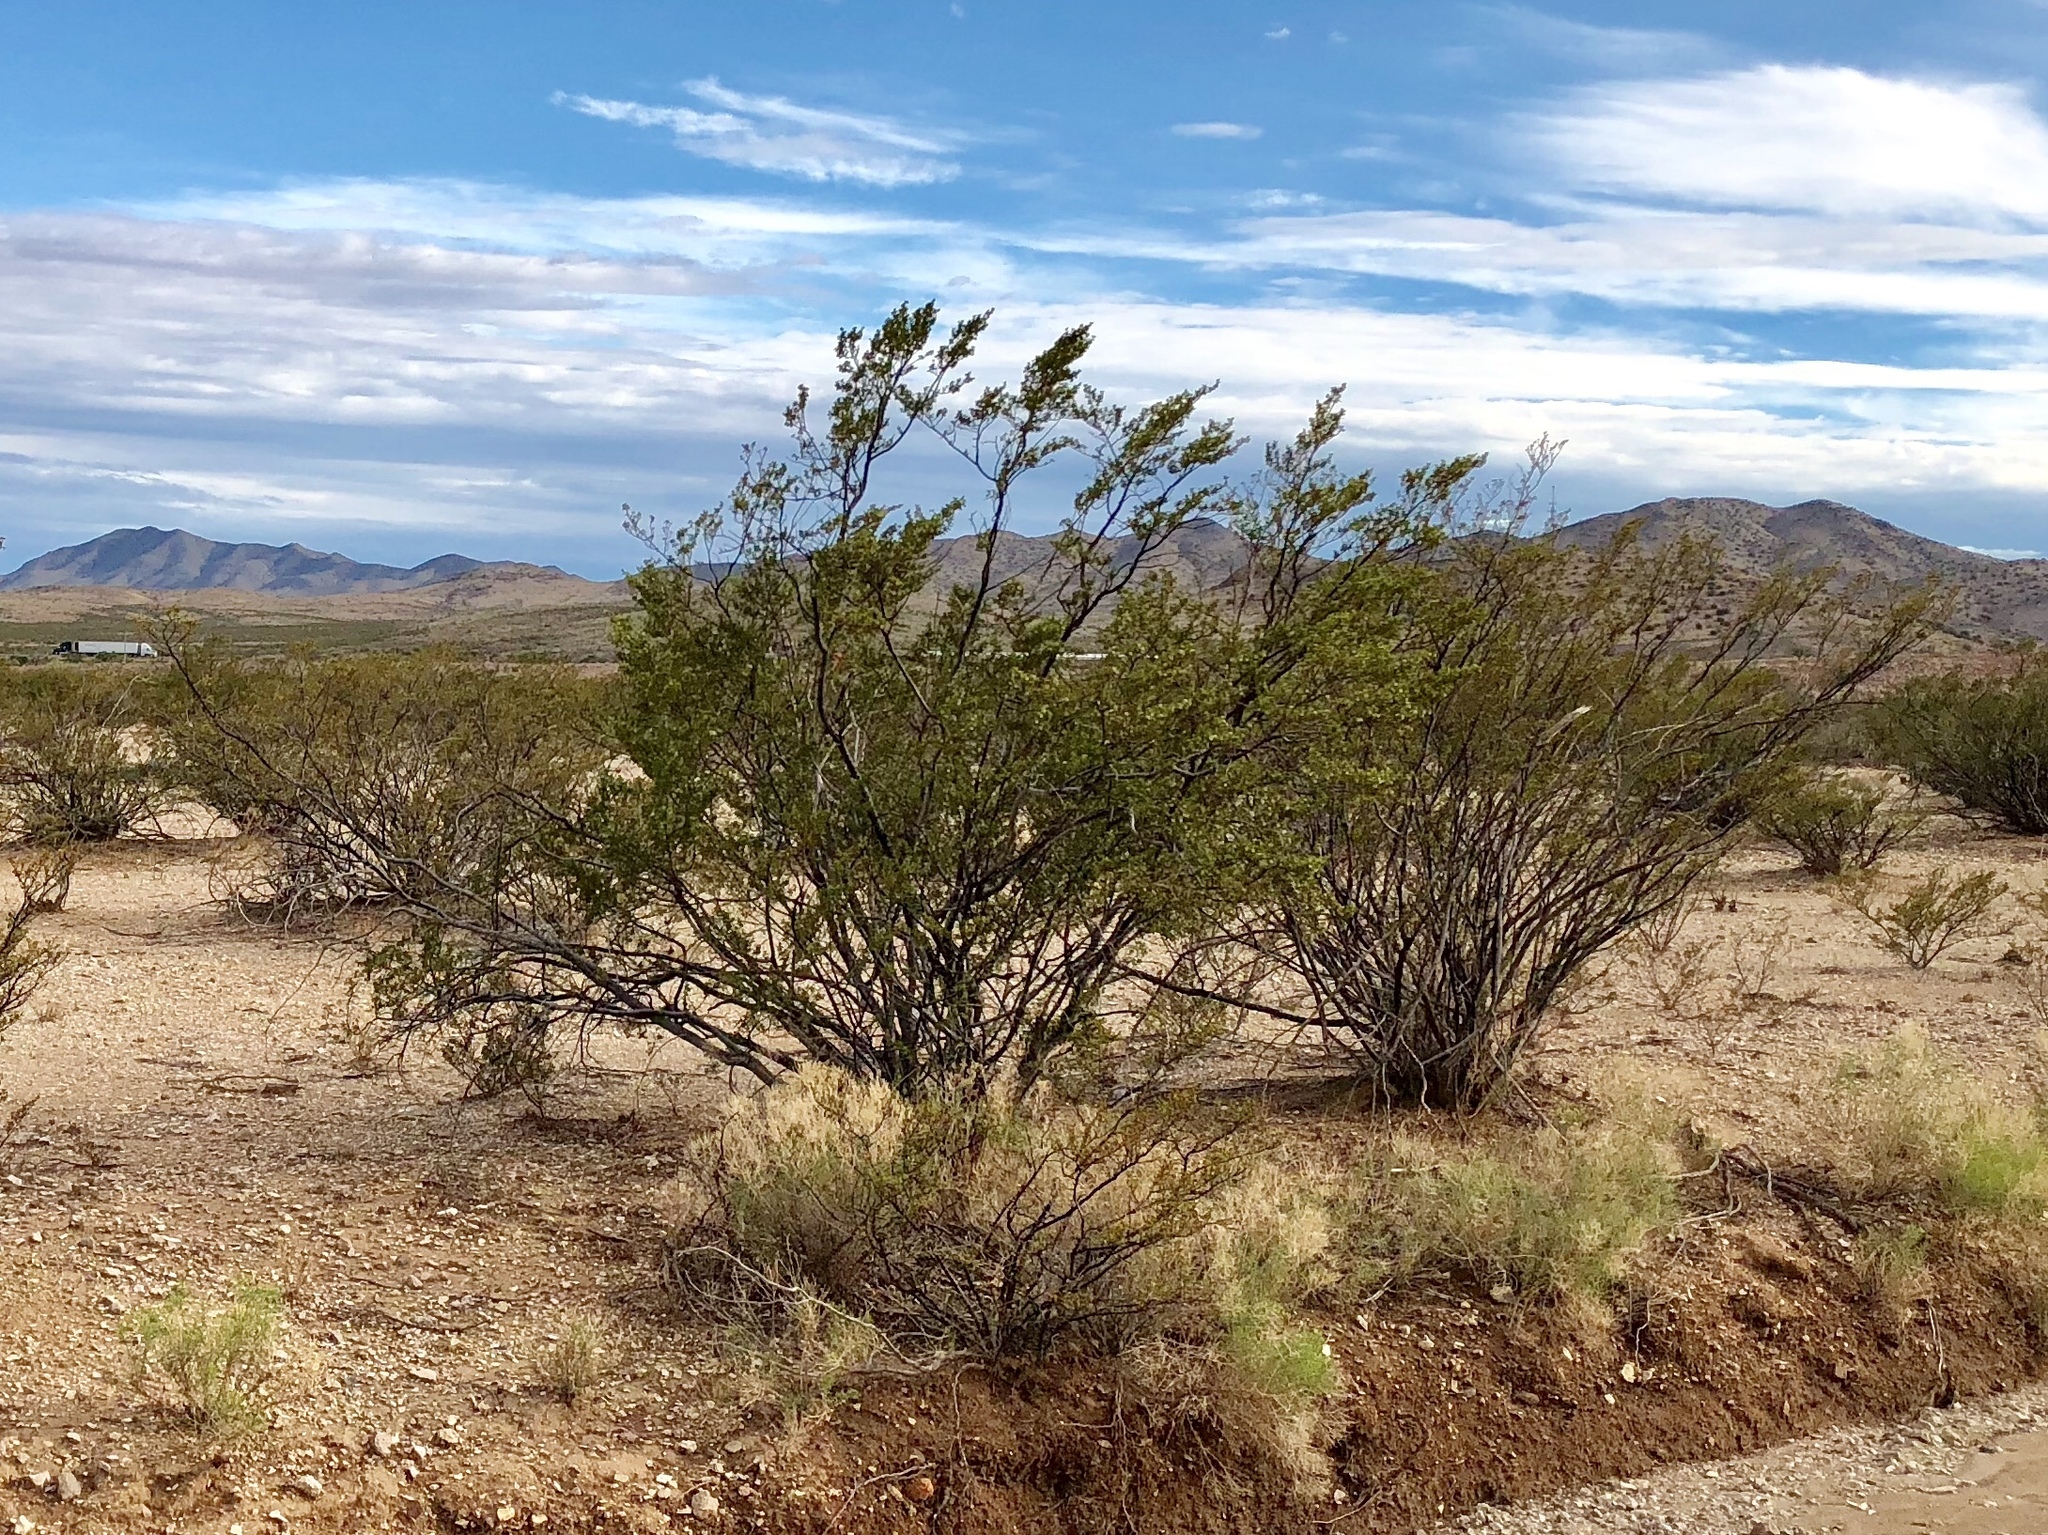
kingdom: Plantae
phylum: Tracheophyta
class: Magnoliopsida
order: Zygophyllales
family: Zygophyllaceae
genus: Larrea
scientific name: Larrea tridentata
